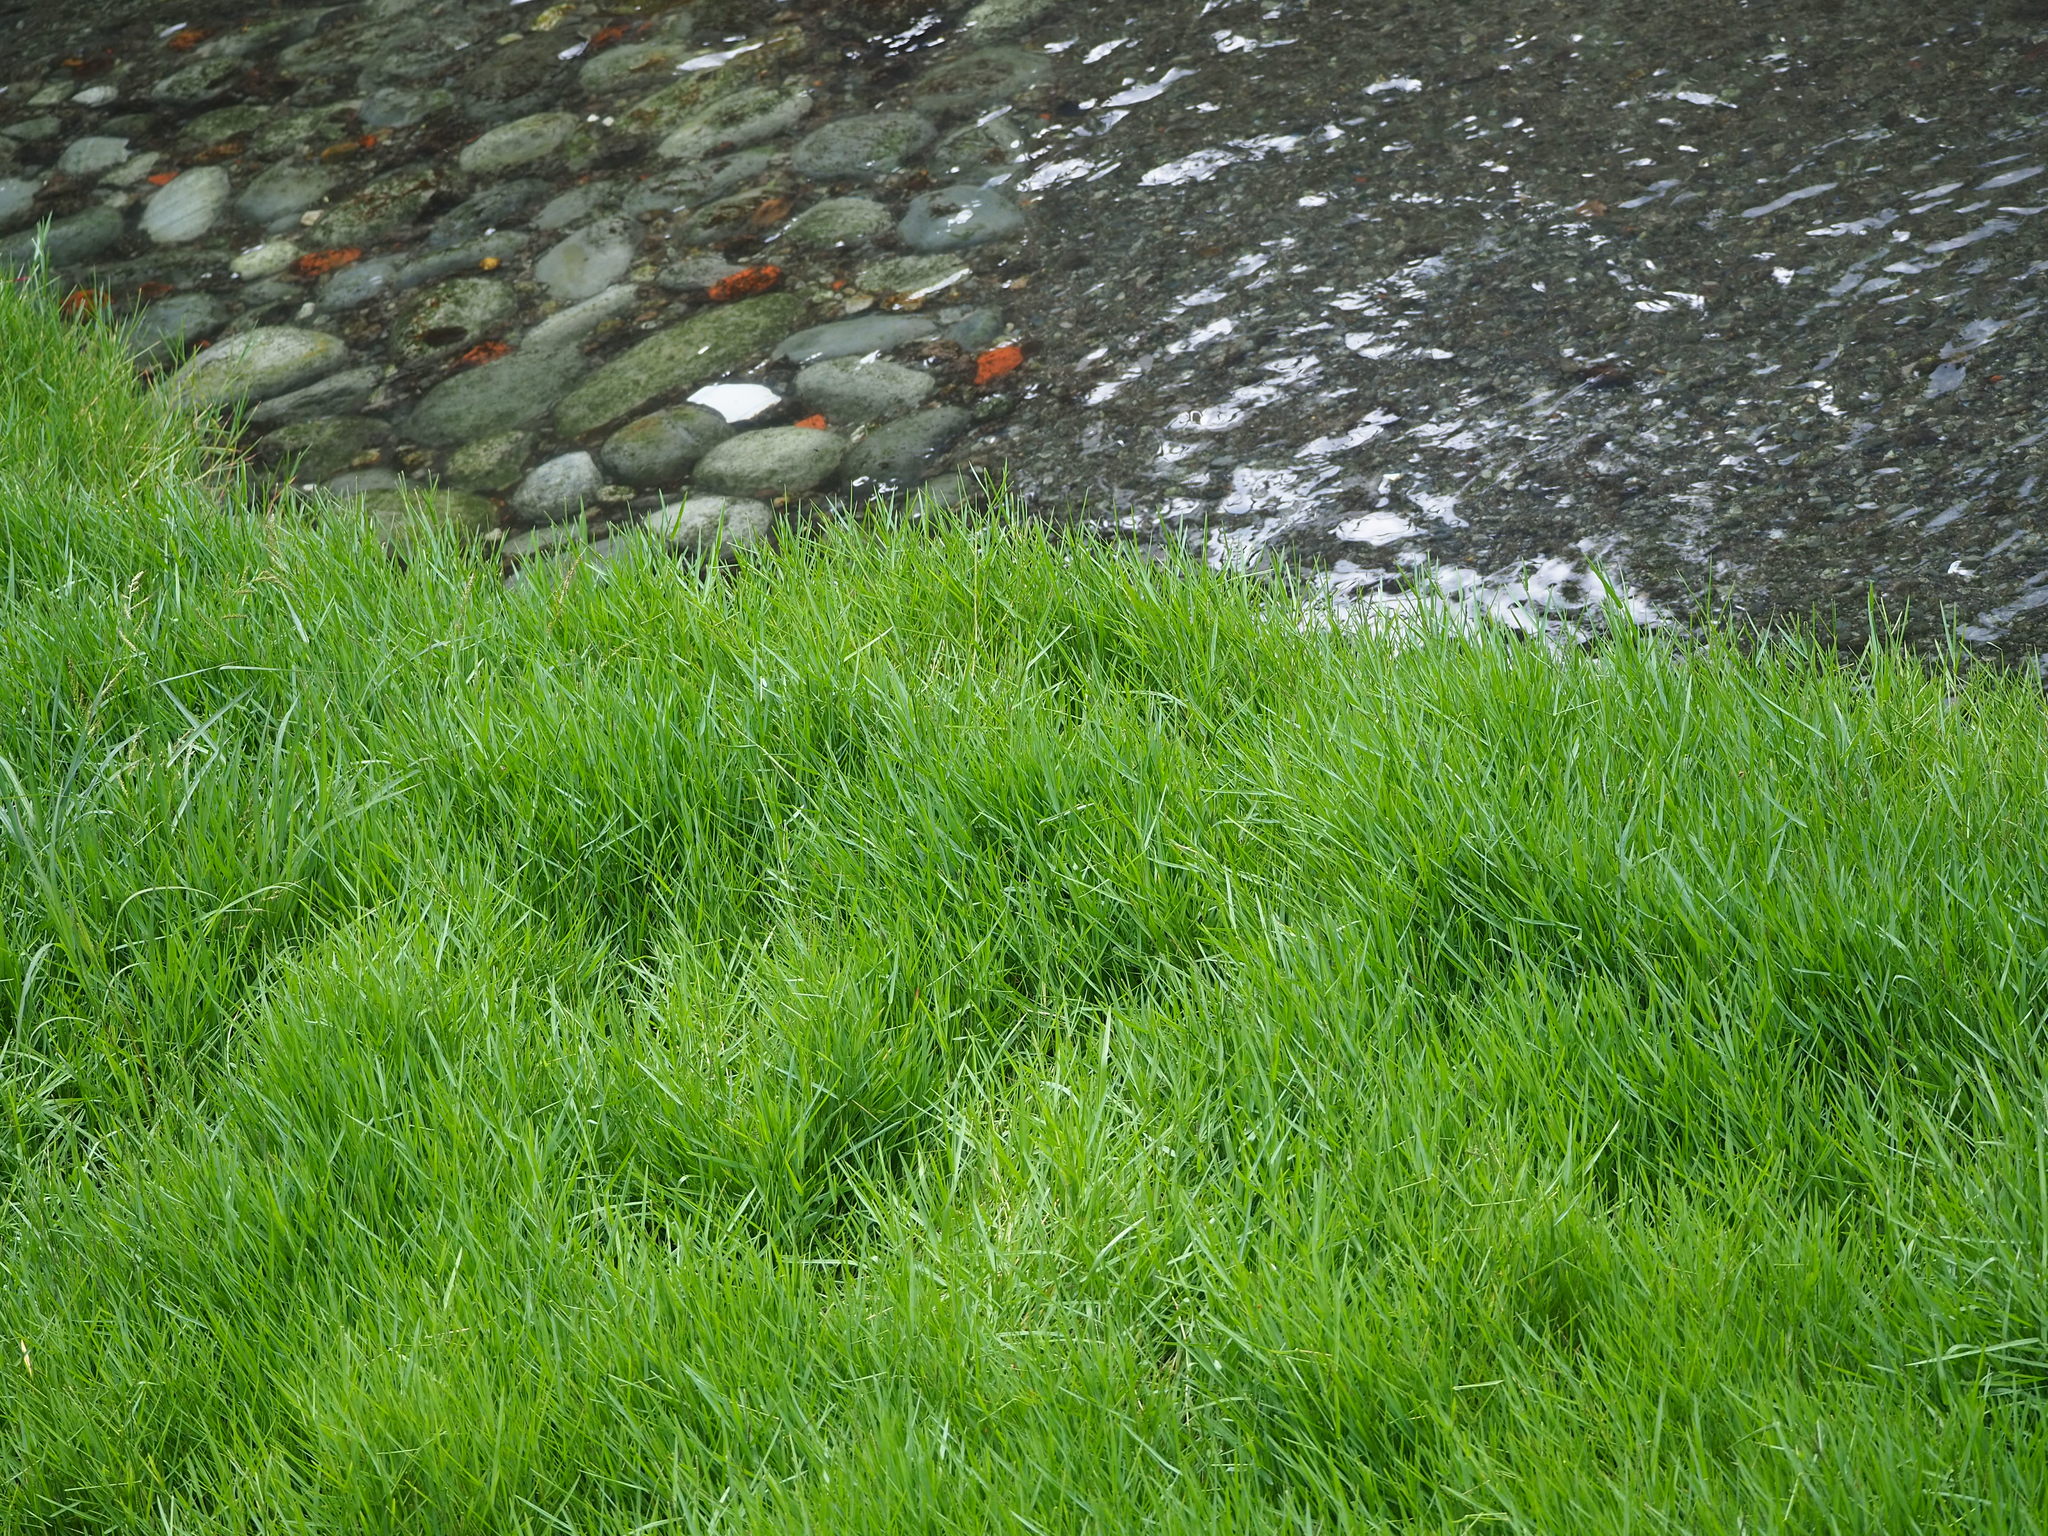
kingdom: Plantae
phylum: Tracheophyta
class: Liliopsida
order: Poales
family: Poaceae
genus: Paspalum
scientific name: Paspalum distichum
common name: Knotgrass
